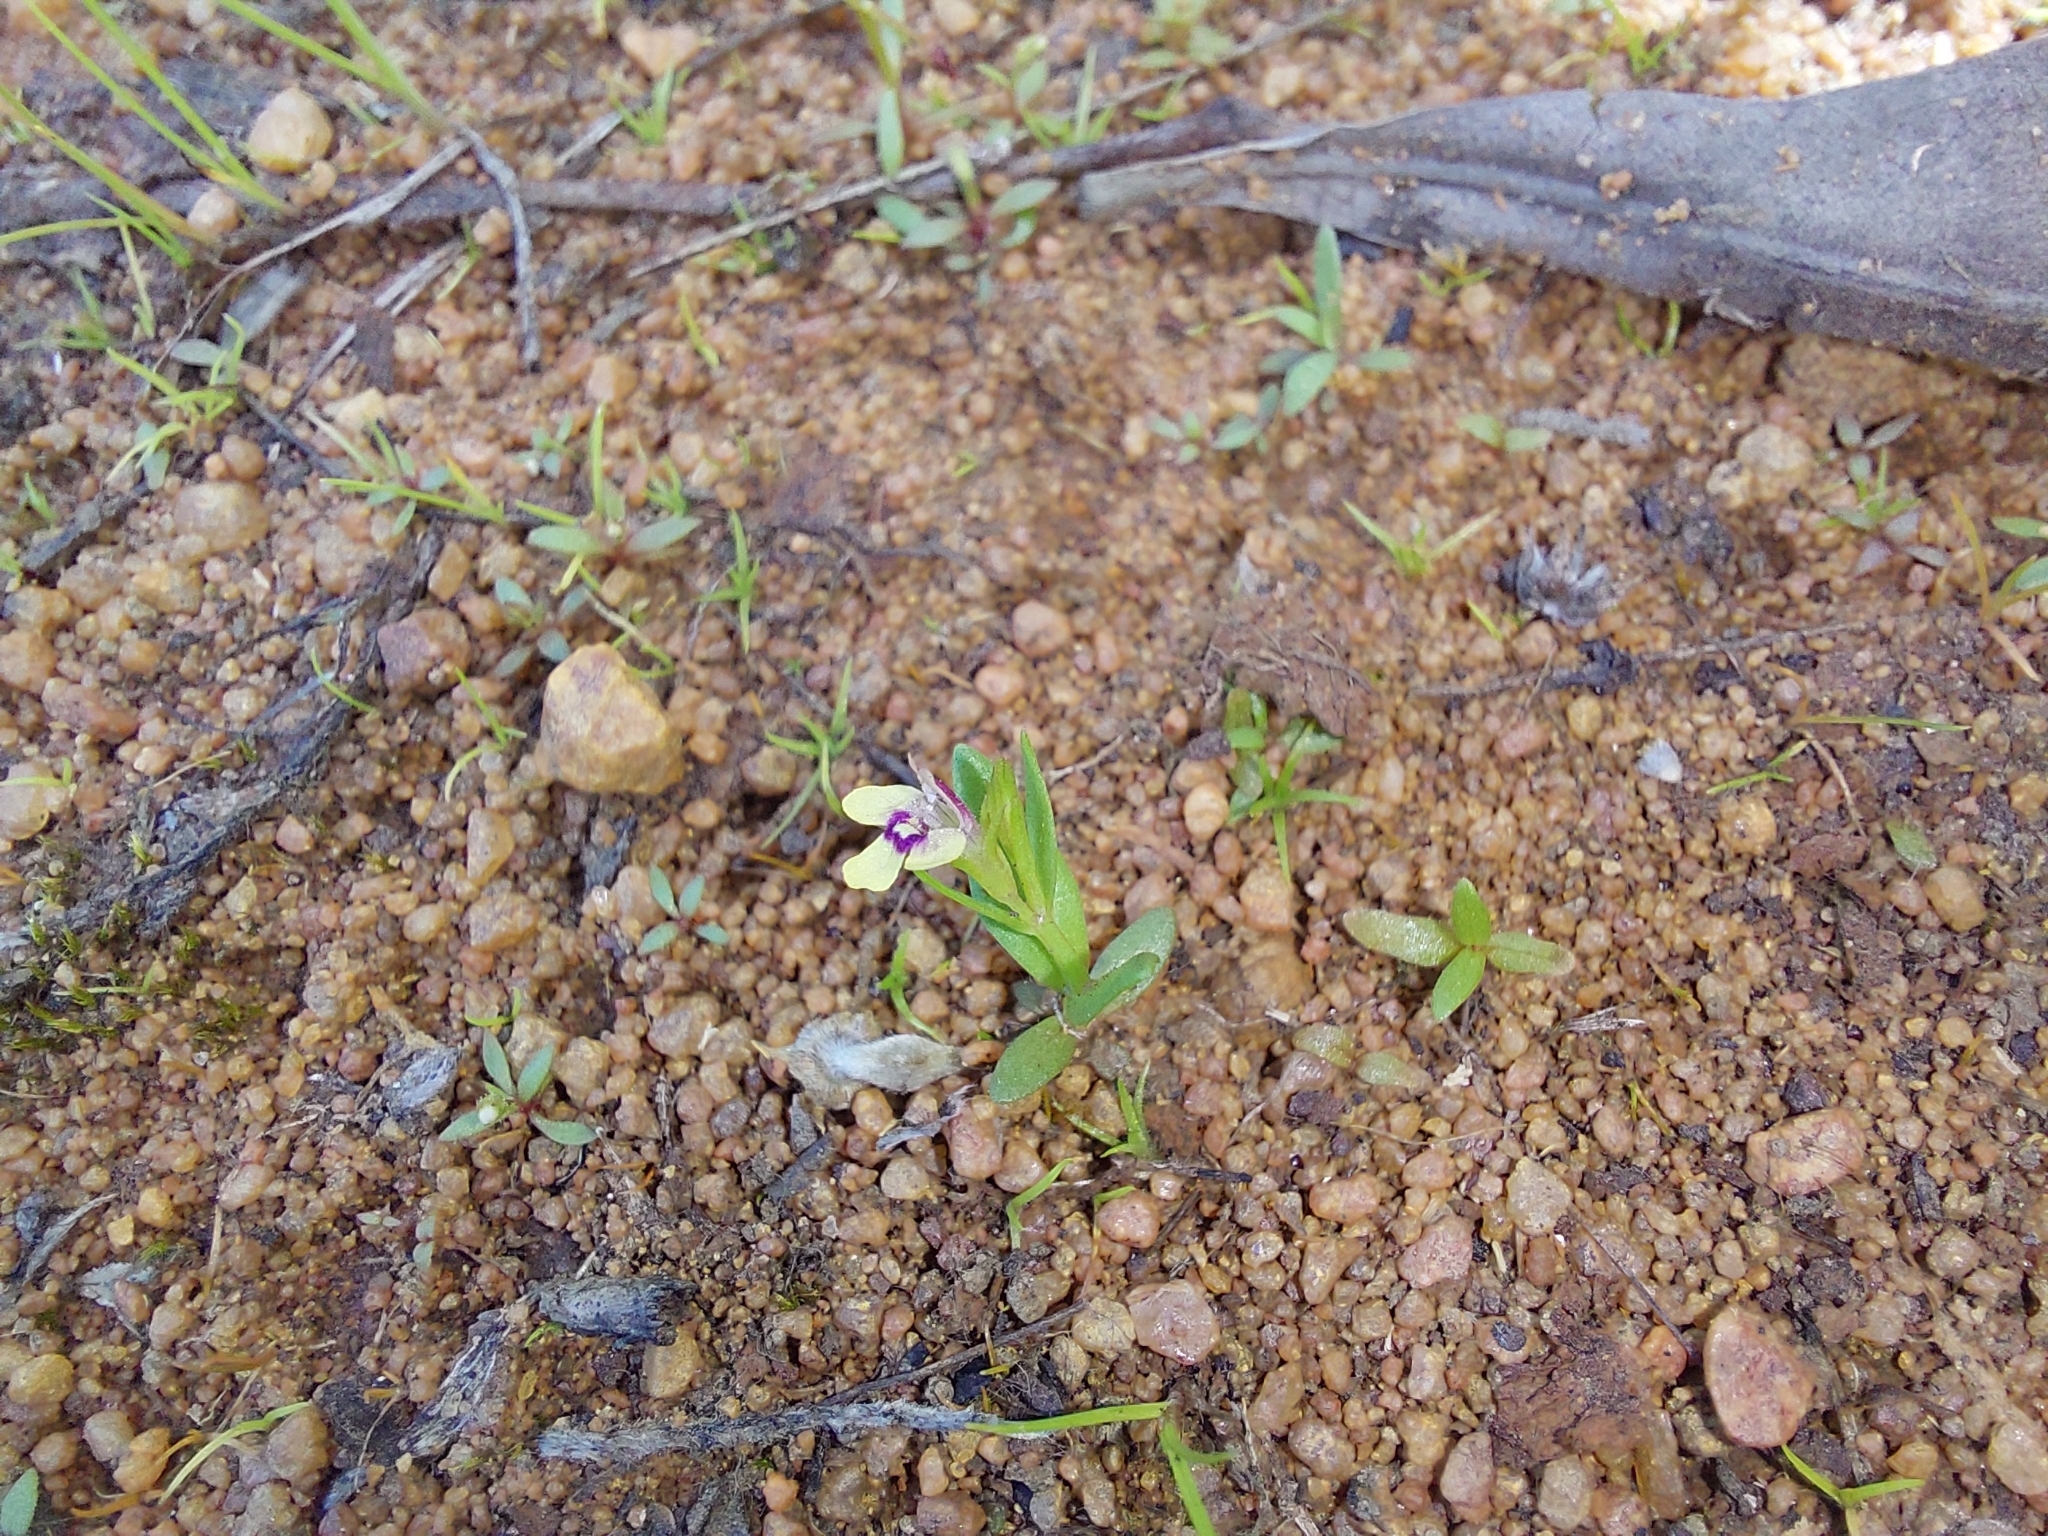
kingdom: Plantae
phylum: Tracheophyta
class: Magnoliopsida
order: Lamiales
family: Linderniaceae
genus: Crepidorhopalon
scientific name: Crepidorhopalon debilis
